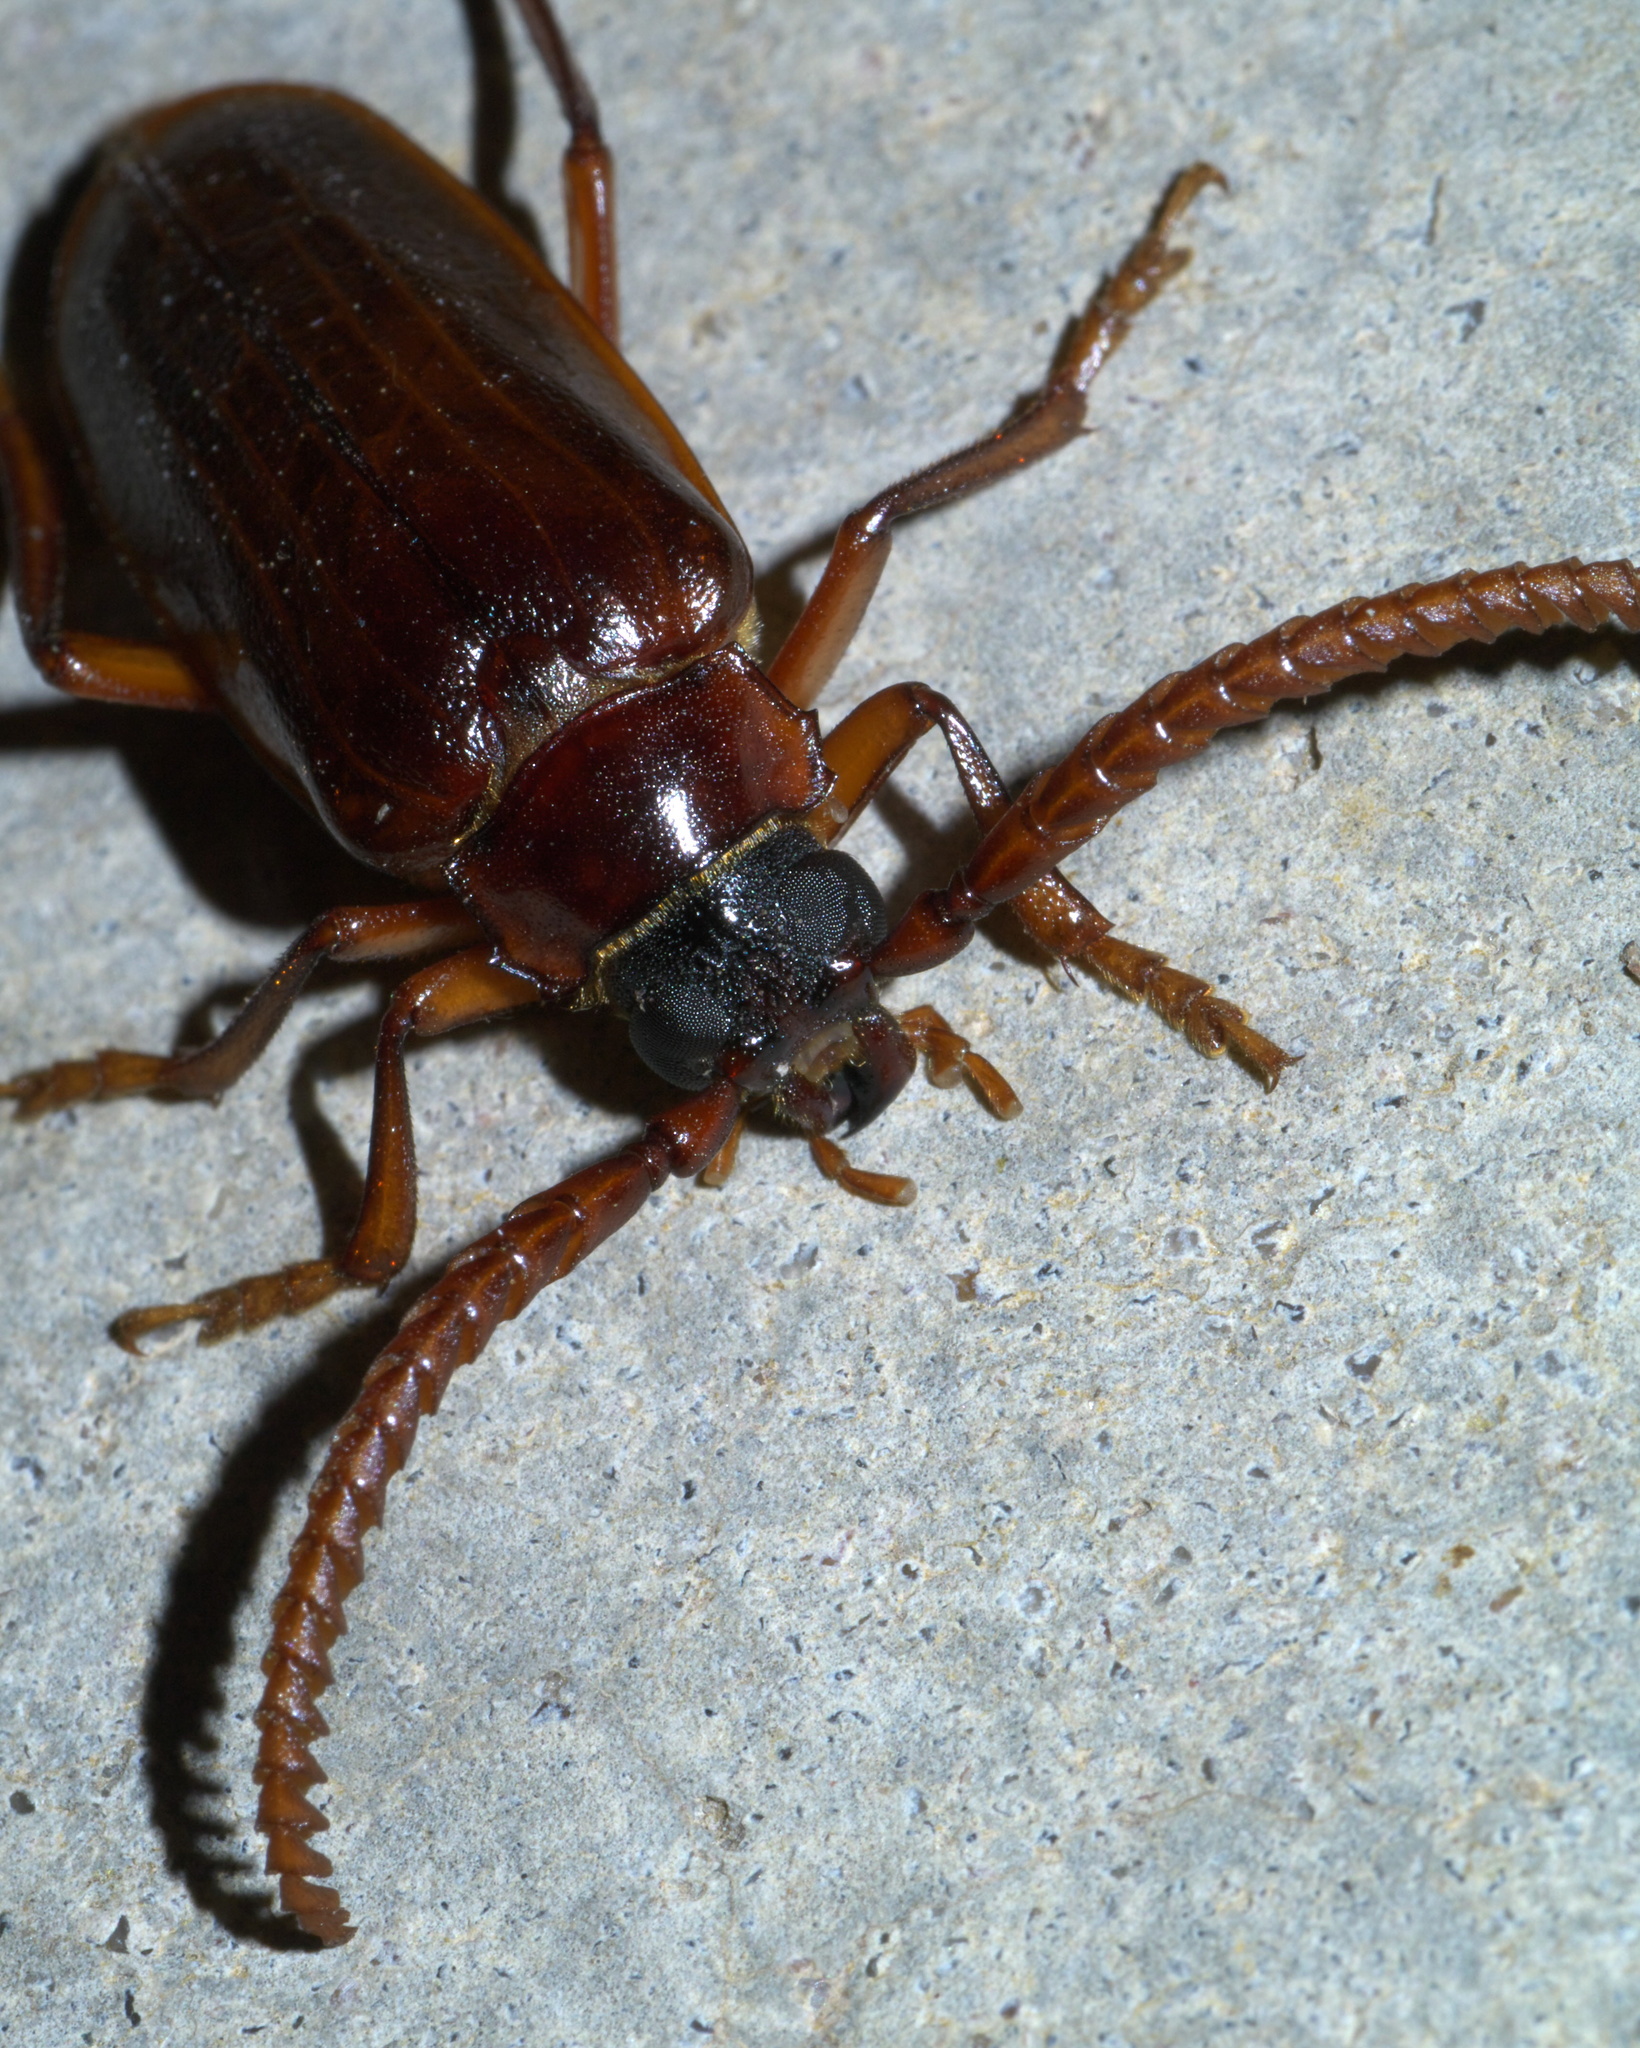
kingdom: Animalia
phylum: Arthropoda
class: Insecta
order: Coleoptera
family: Cerambycidae
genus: Prionus
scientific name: Prionus debilis
